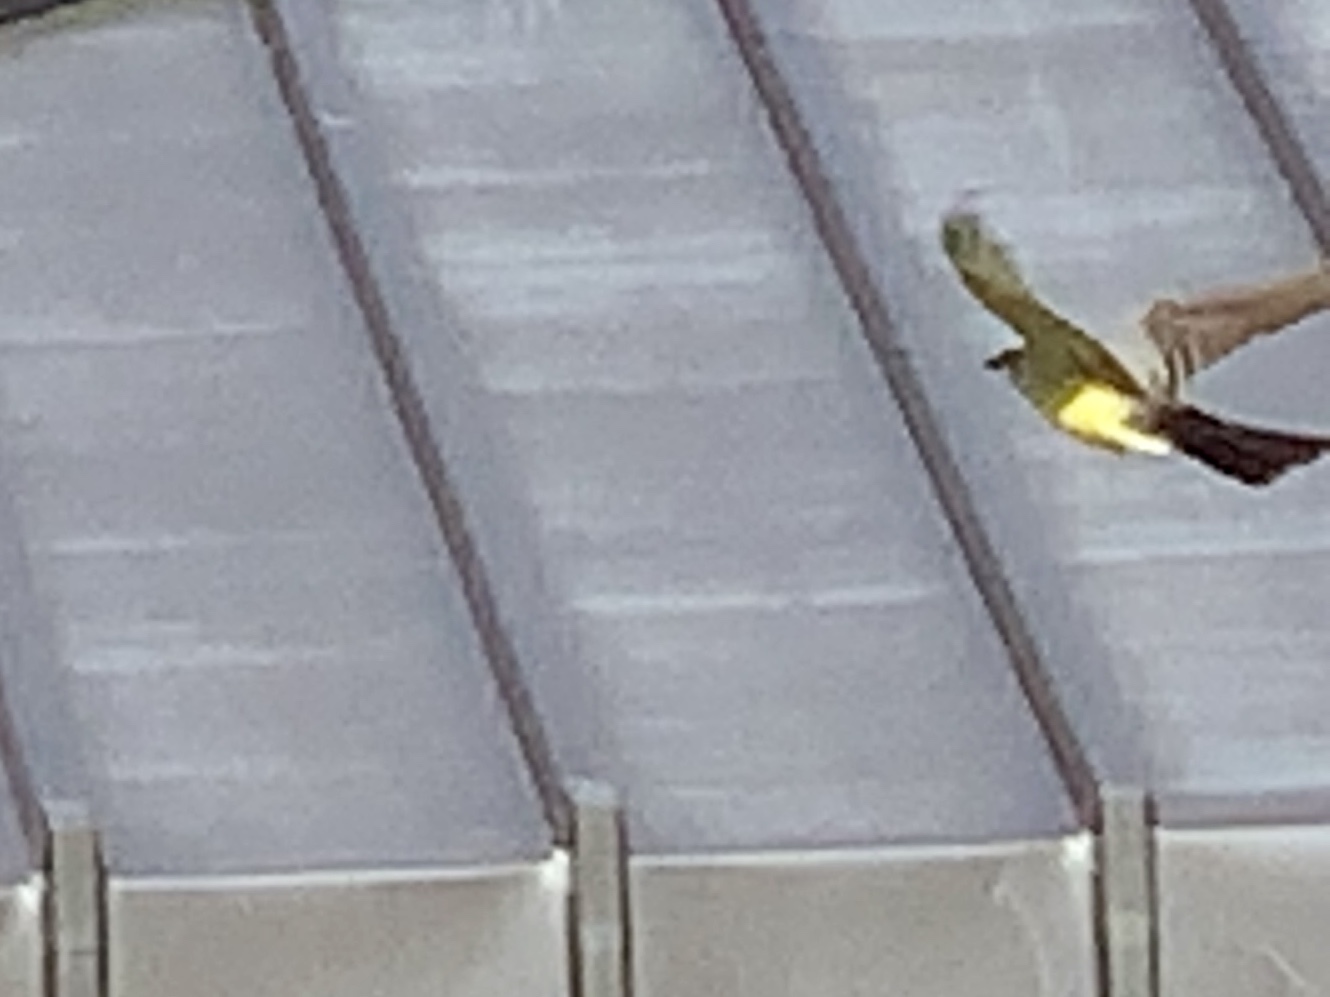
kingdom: Animalia
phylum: Chordata
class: Aves
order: Passeriformes
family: Tyrannidae
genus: Tyrannus
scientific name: Tyrannus verticalis
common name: Western kingbird
